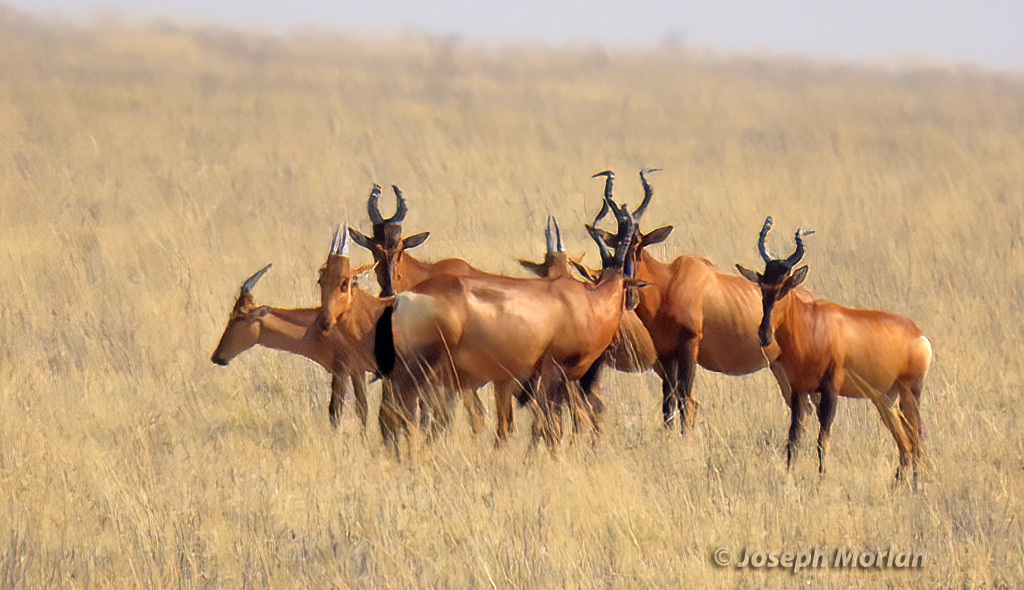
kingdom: Animalia
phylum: Chordata
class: Mammalia
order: Artiodactyla
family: Bovidae
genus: Alcelaphus
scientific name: Alcelaphus caama
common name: Red hartebeest
